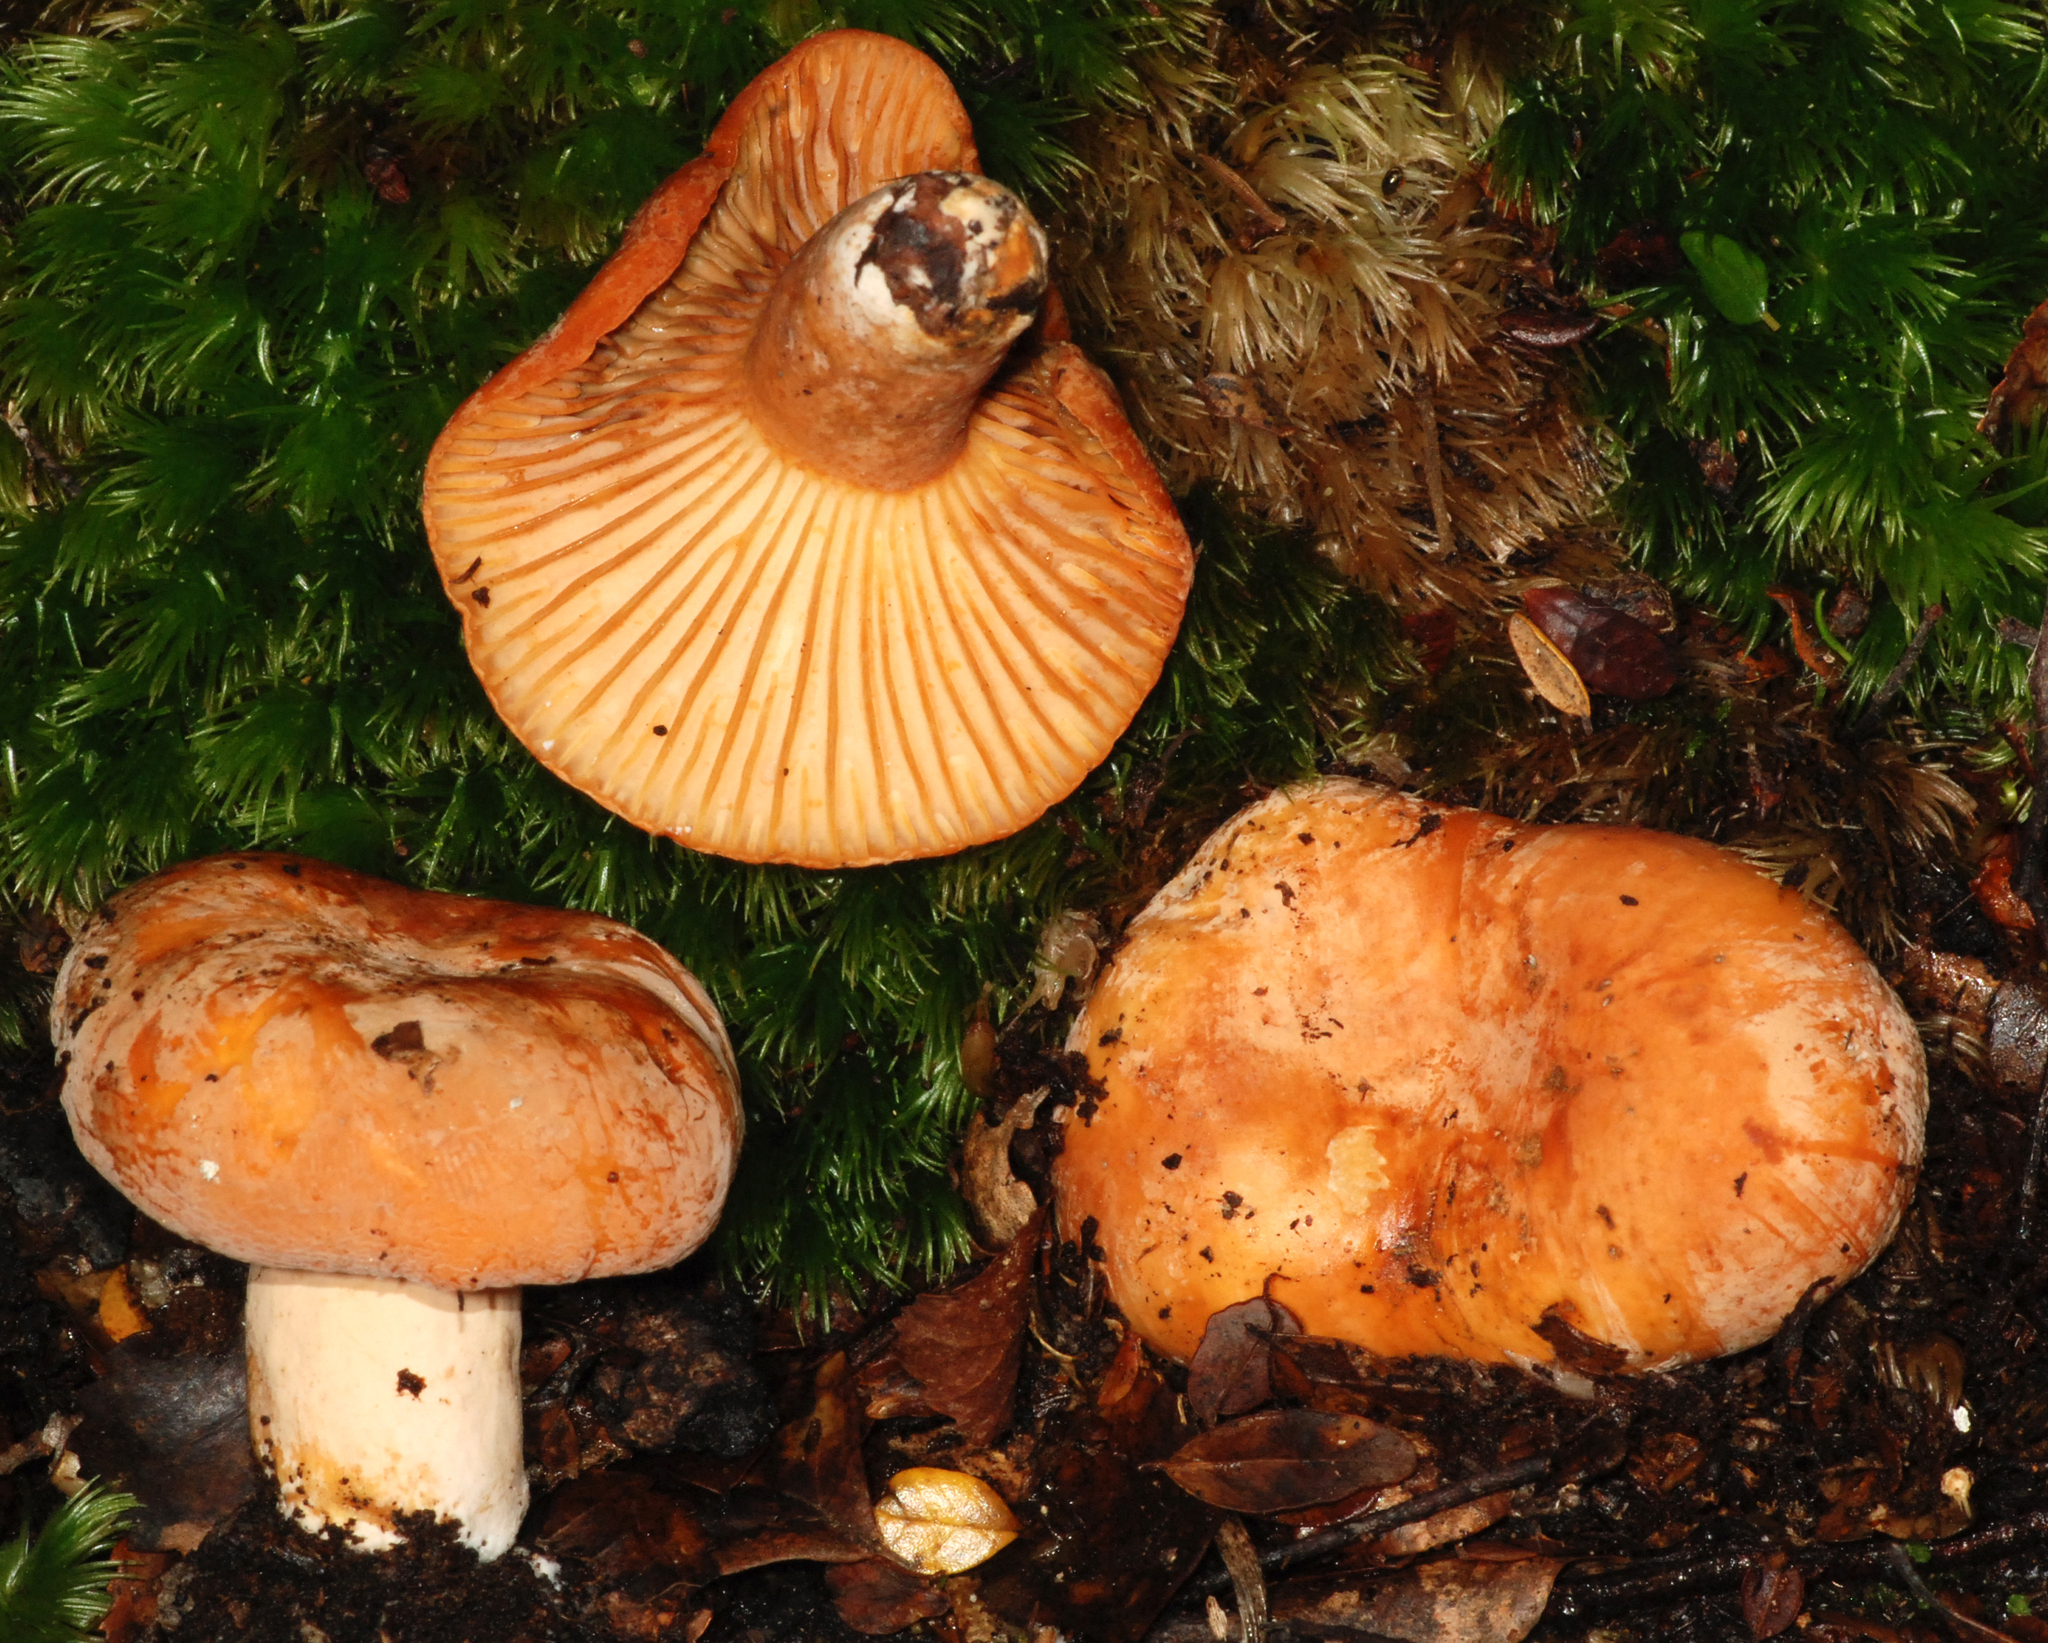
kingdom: Fungi
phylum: Basidiomycota
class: Agaricomycetes
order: Russulales
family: Russulaceae
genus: Lactifluus
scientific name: Lactifluus aurantioruber
